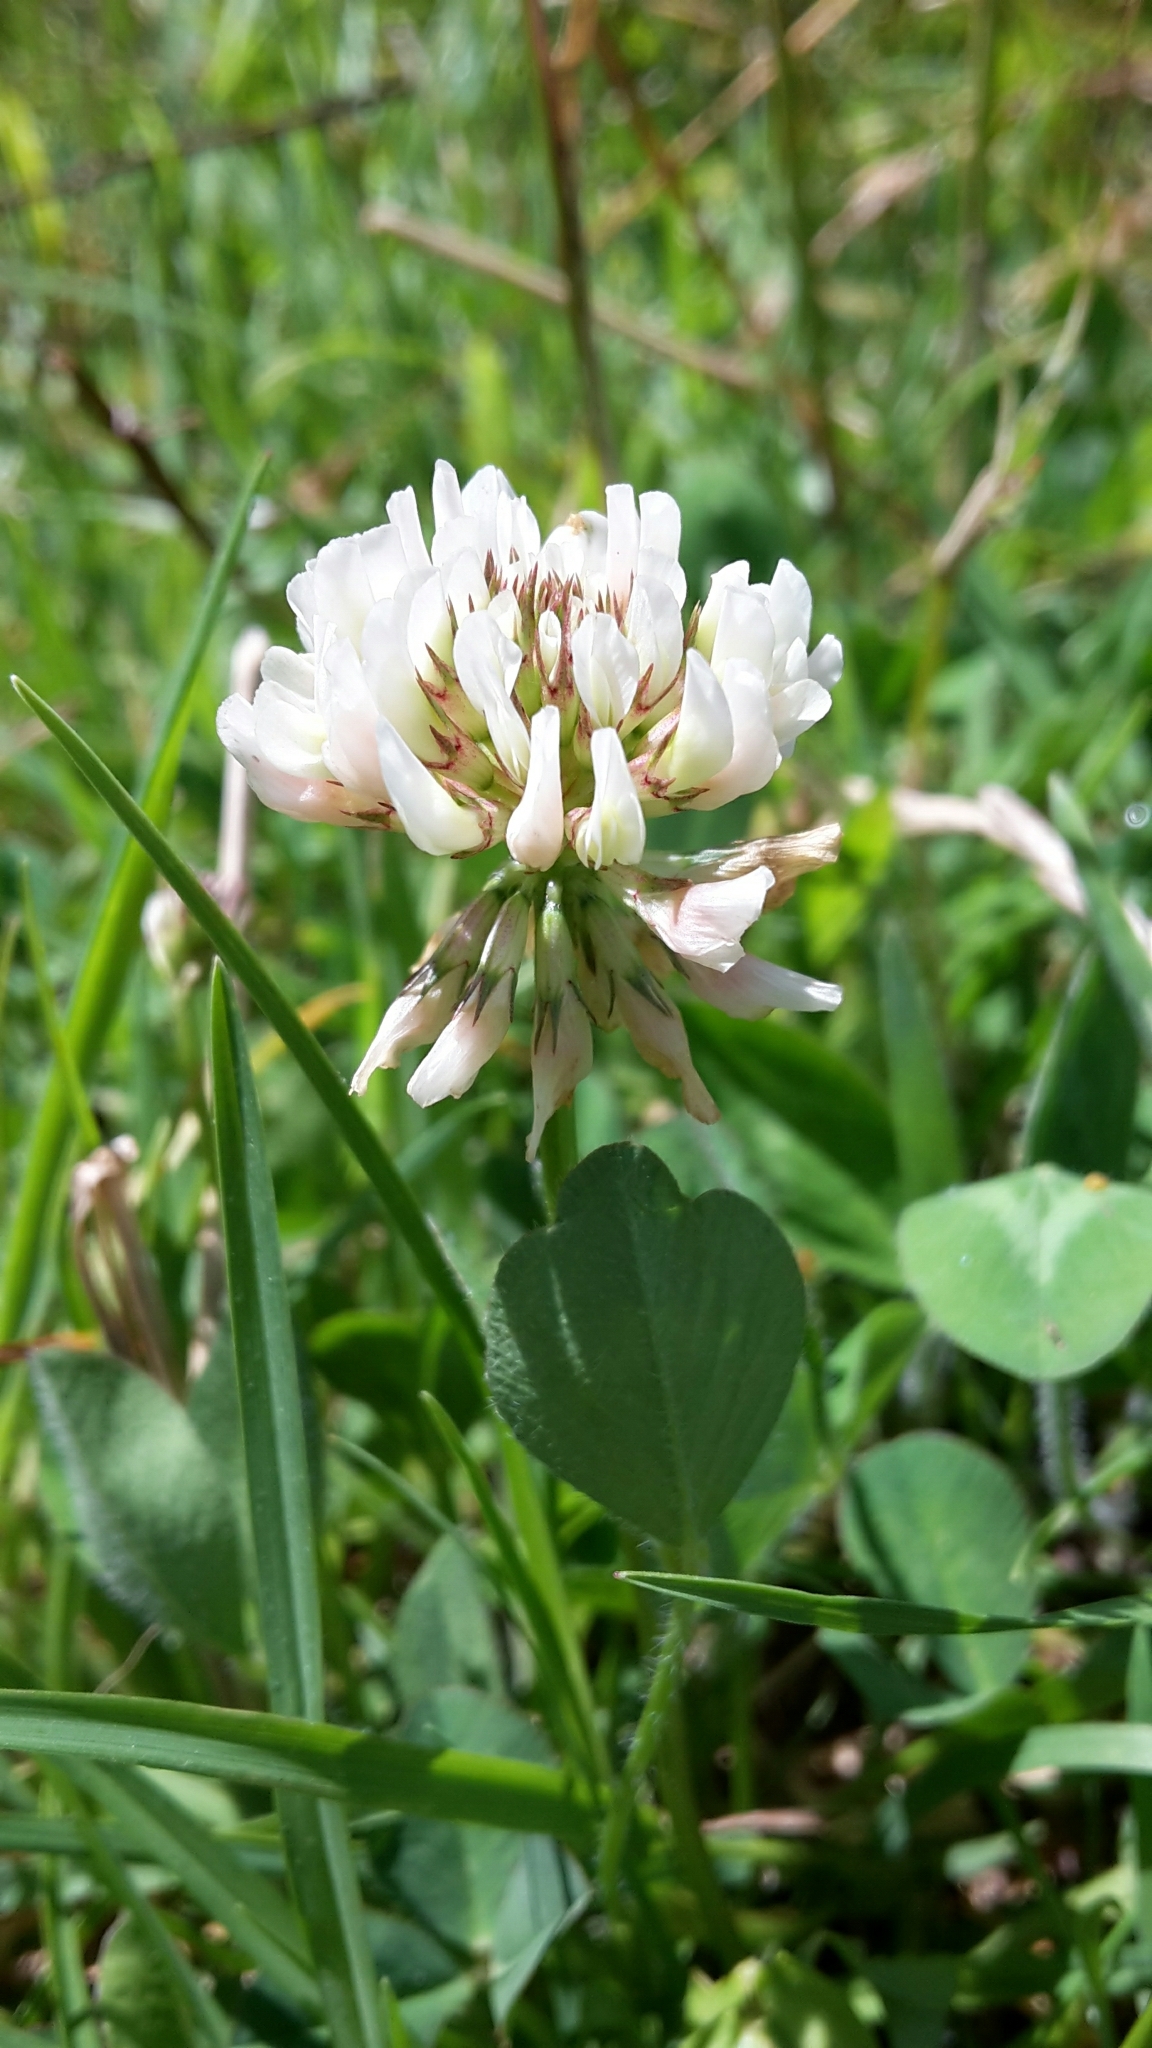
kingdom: Plantae
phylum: Tracheophyta
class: Magnoliopsida
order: Fabales
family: Fabaceae
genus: Trifolium
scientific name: Trifolium repens
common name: White clover
